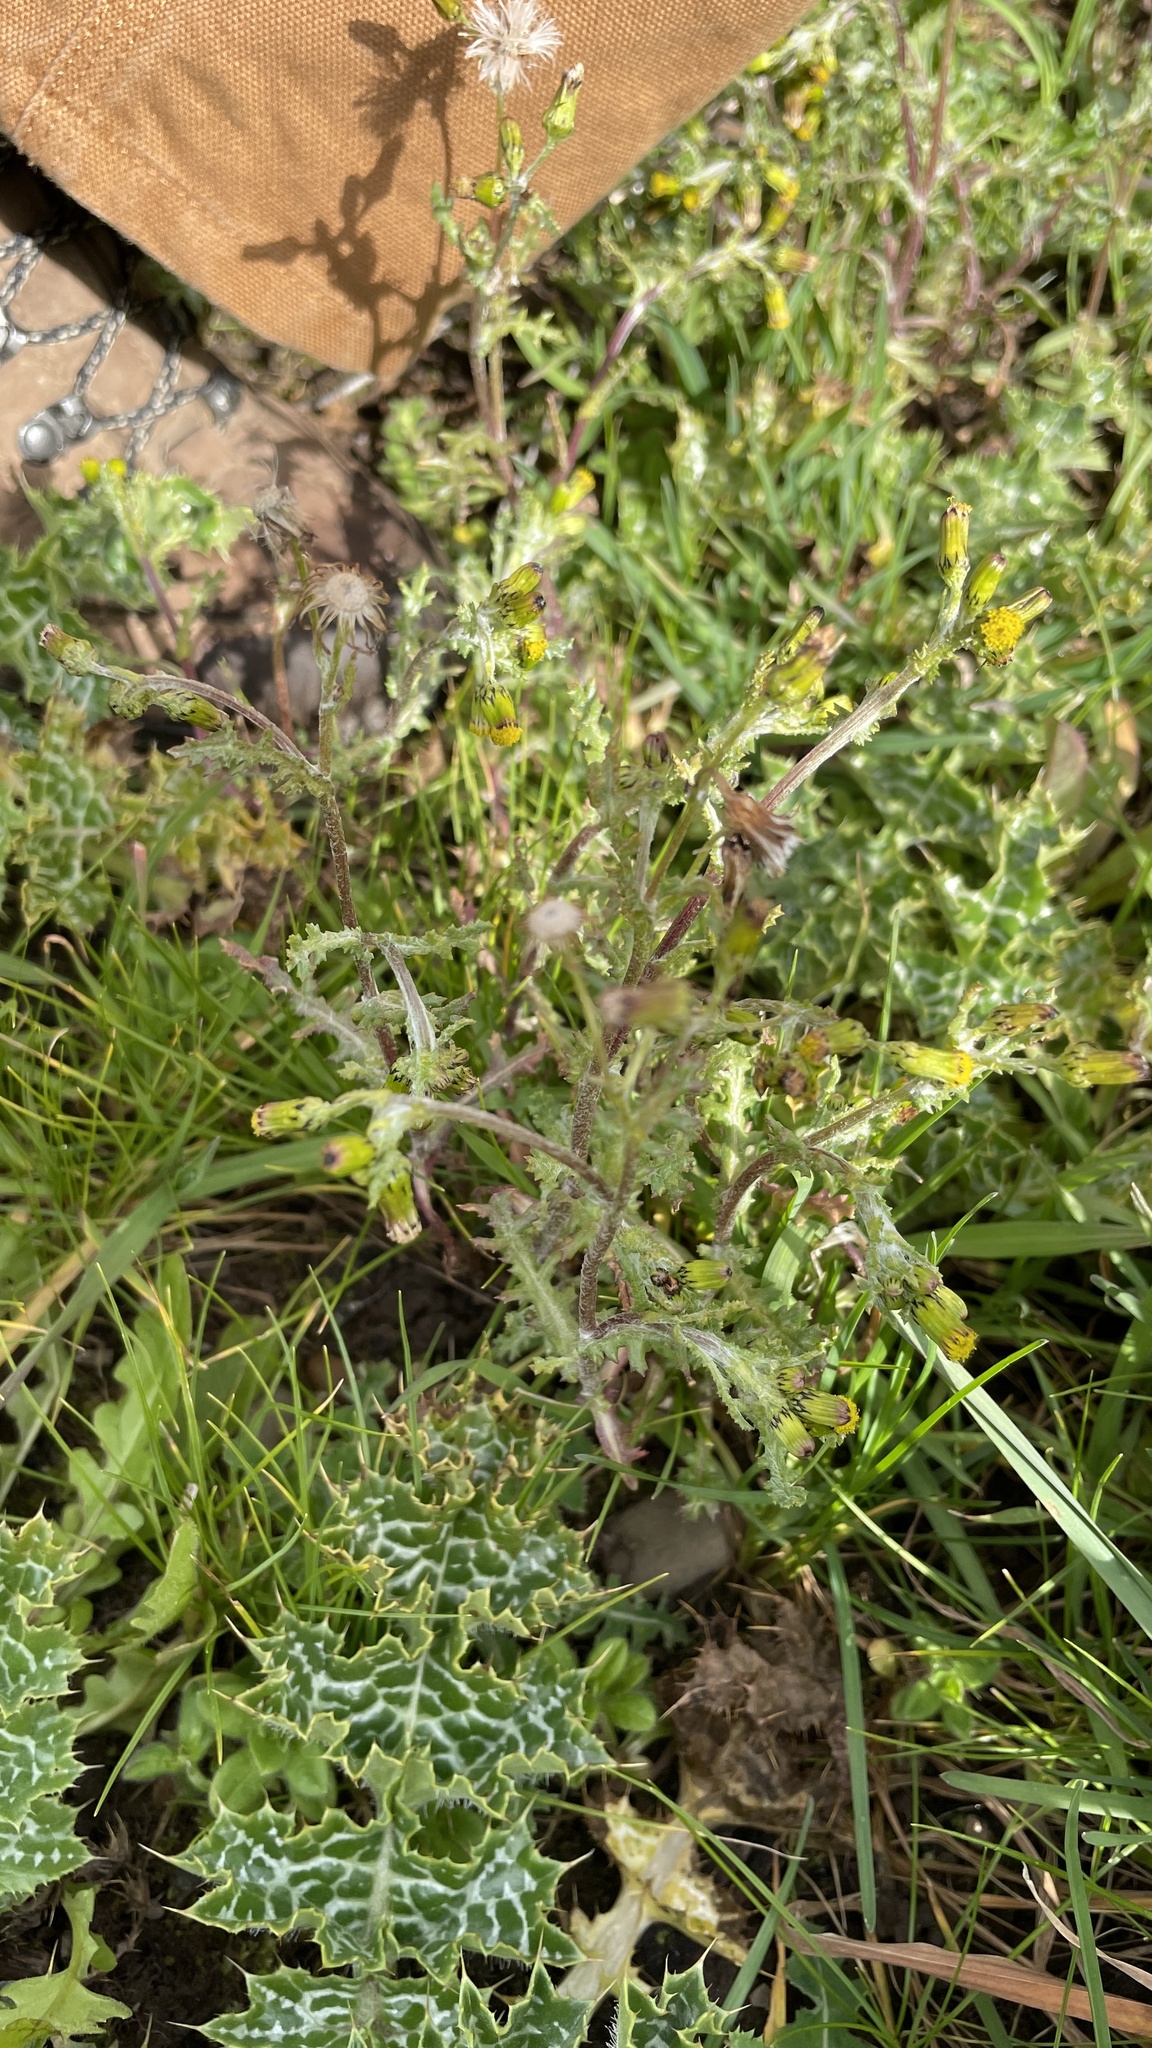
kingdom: Plantae
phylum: Tracheophyta
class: Magnoliopsida
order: Asterales
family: Asteraceae
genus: Senecio
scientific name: Senecio vulgaris
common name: Old-man-in-the-spring
